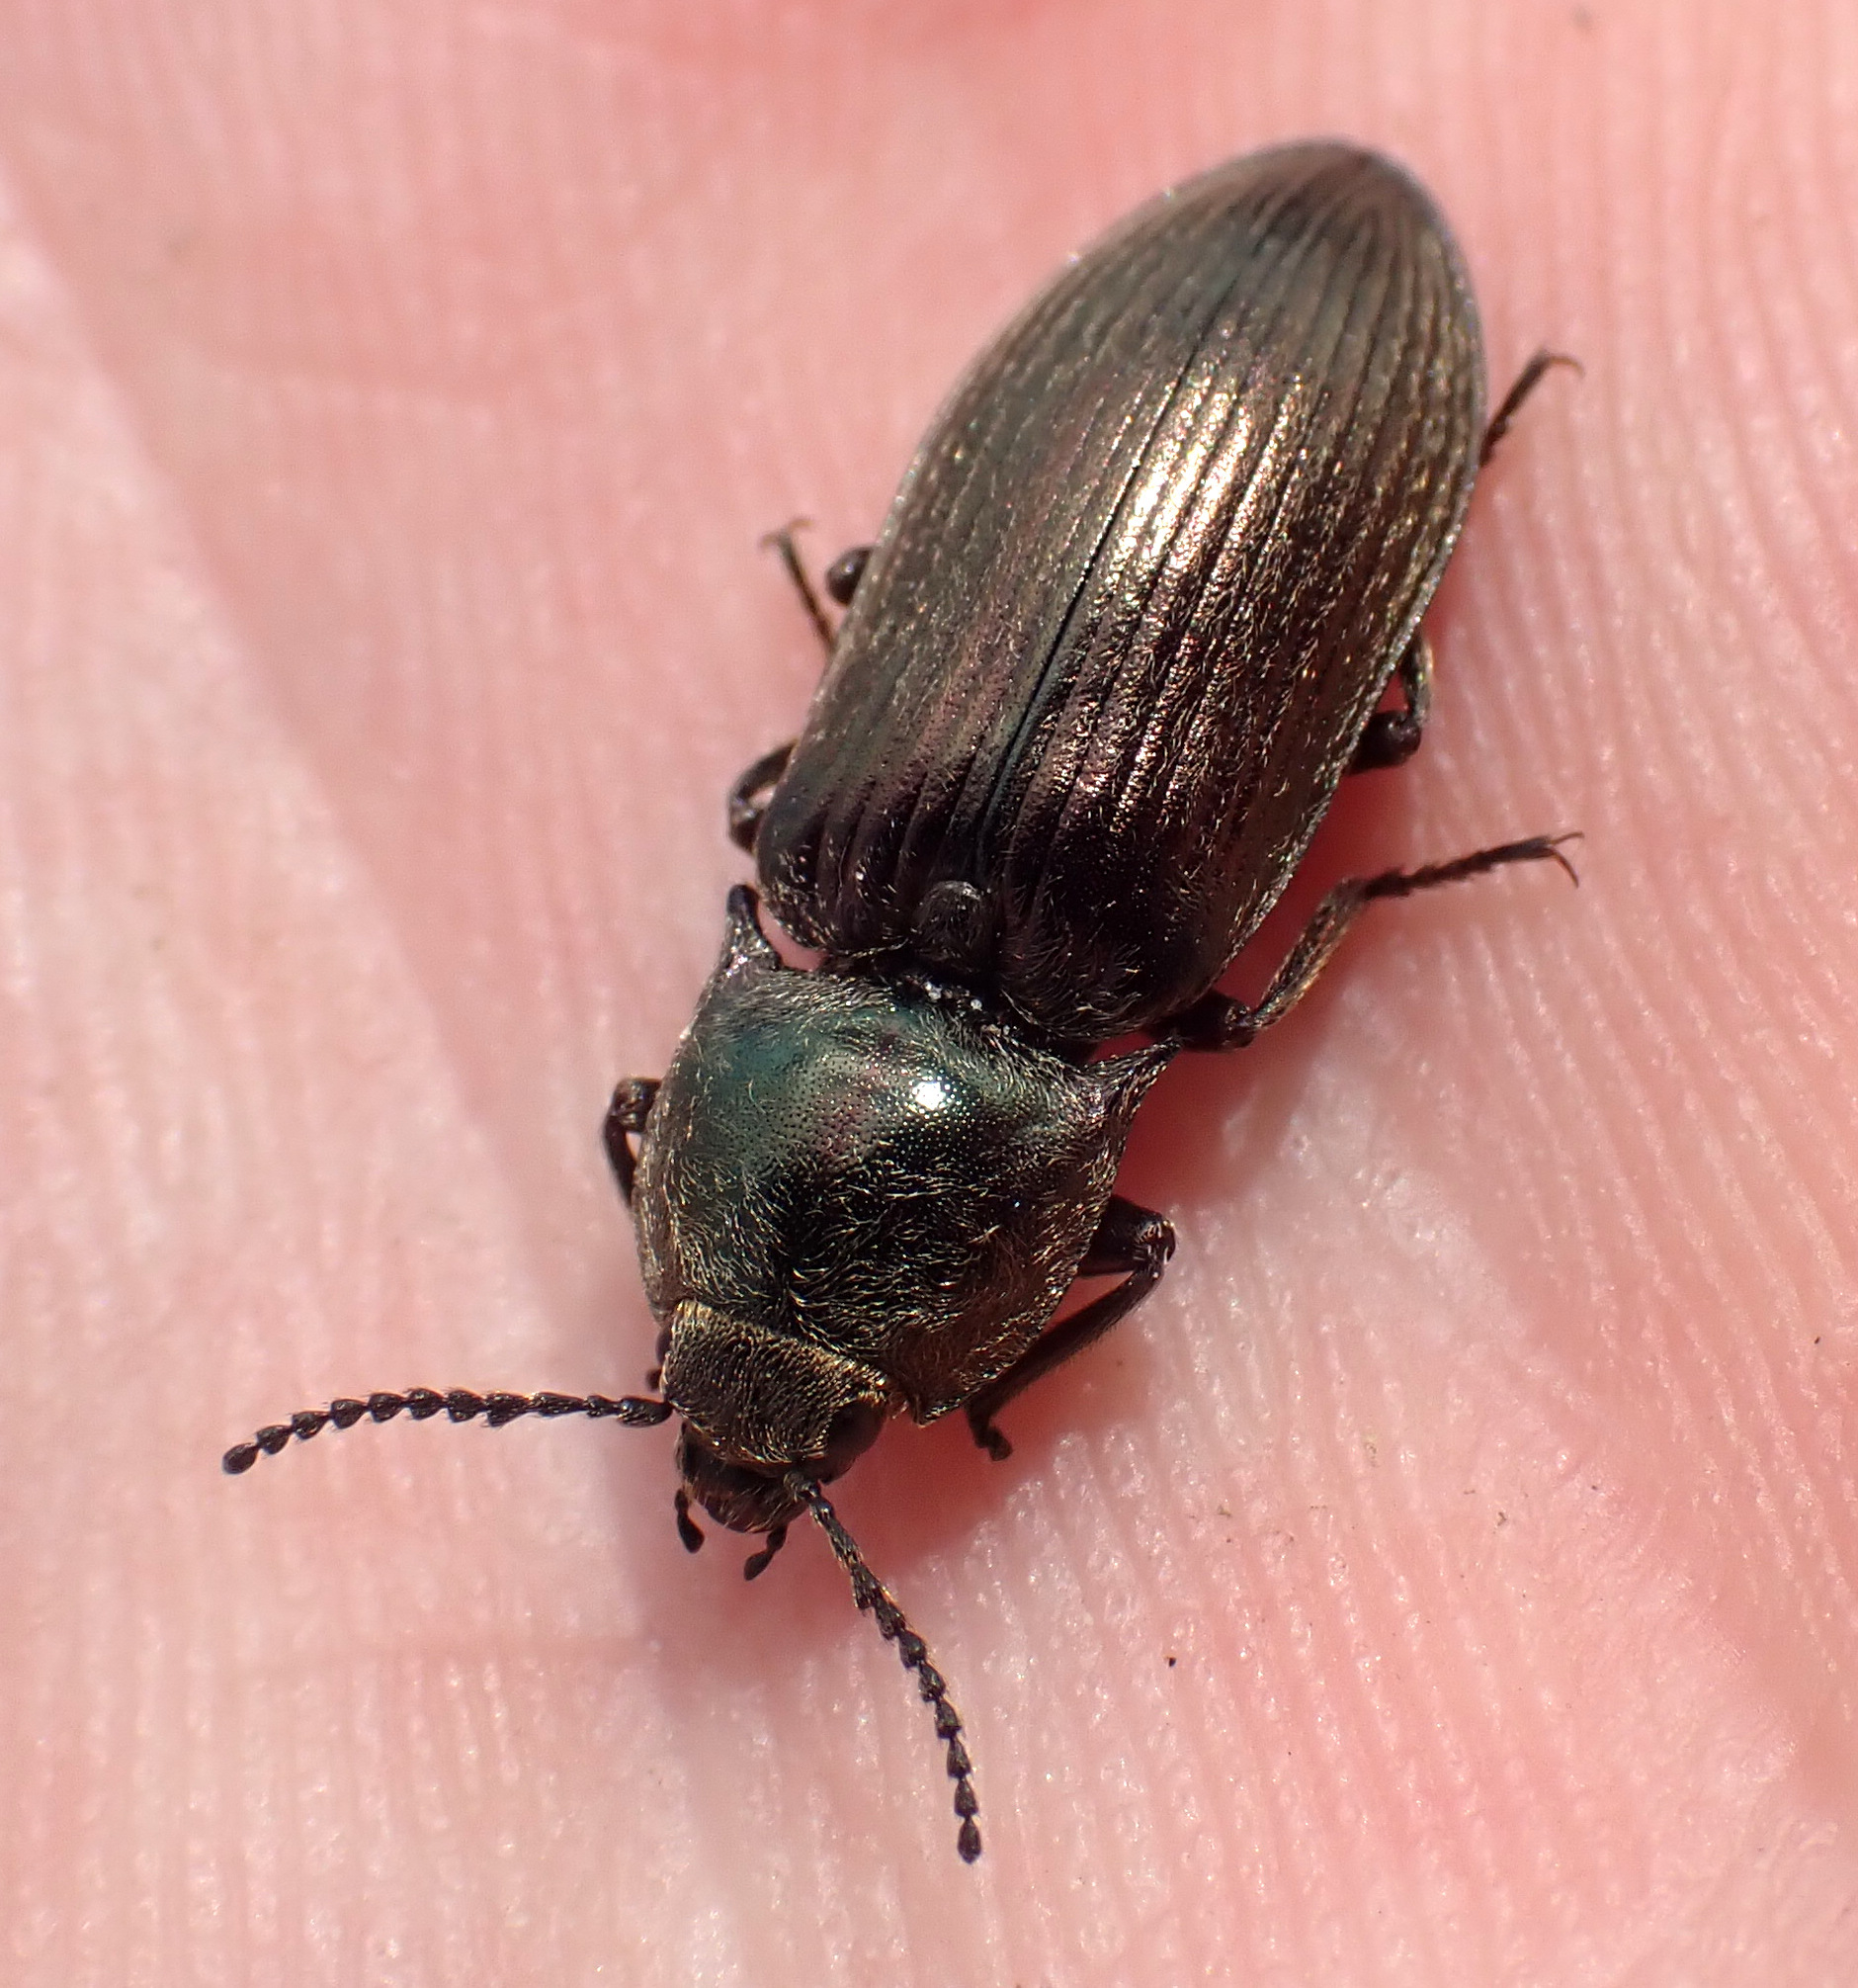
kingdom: Animalia
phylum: Arthropoda
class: Insecta
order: Coleoptera
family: Elateridae
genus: Selatosomus
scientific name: Selatosomus latus
